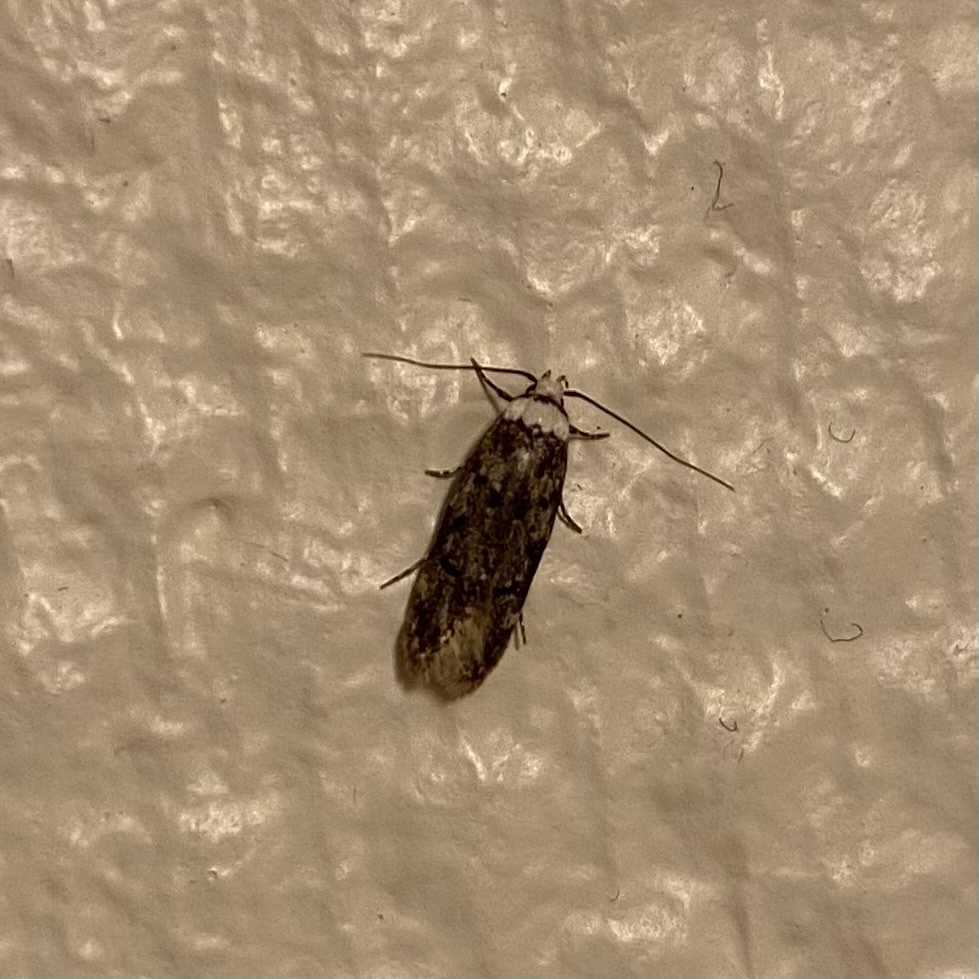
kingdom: Animalia
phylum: Arthropoda
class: Insecta
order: Lepidoptera
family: Oecophoridae
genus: Endrosis
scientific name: Endrosis sarcitrella
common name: White-shouldered house moth
